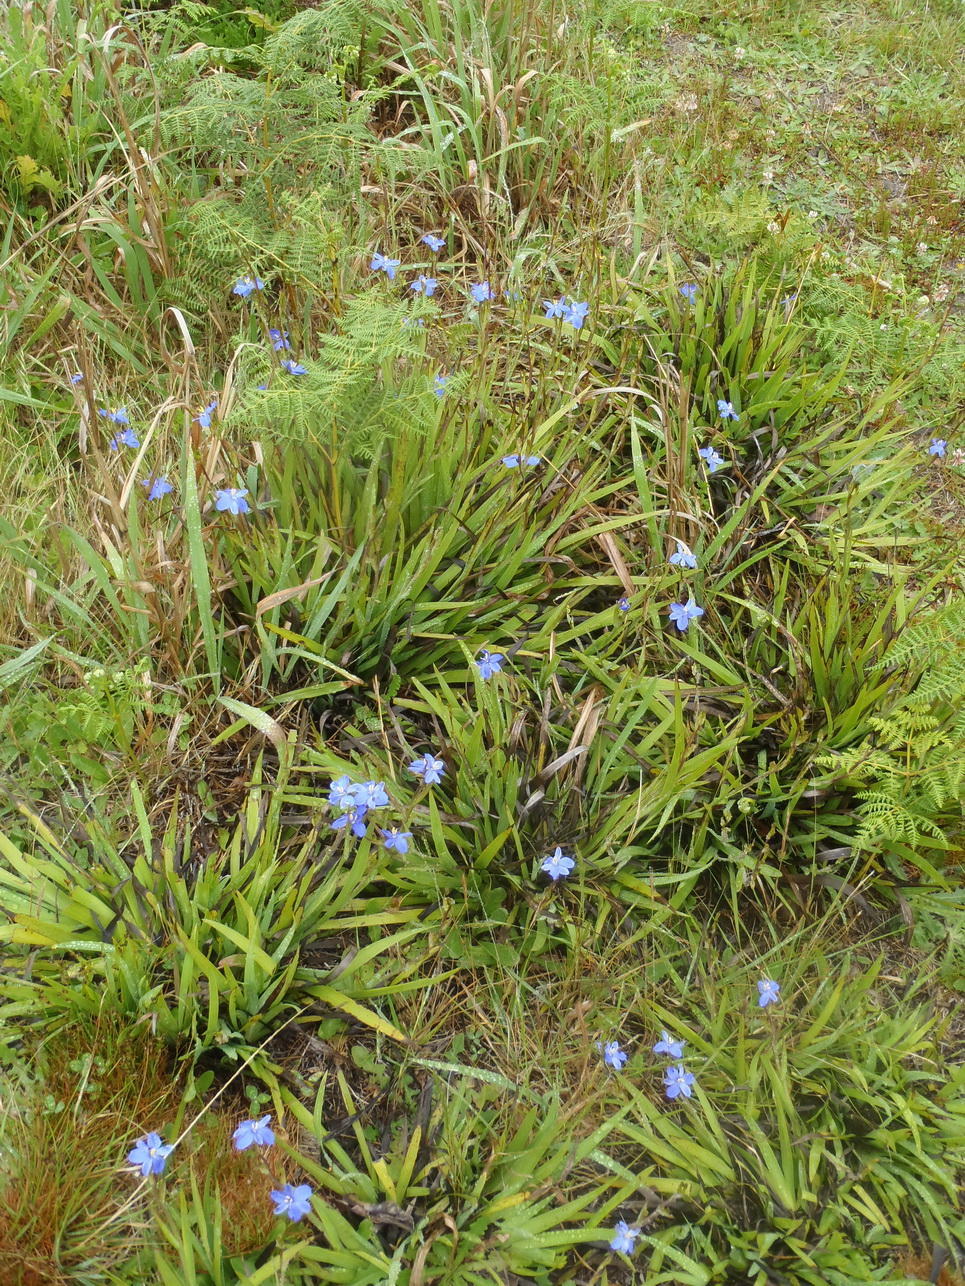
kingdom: Plantae
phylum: Tracheophyta
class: Liliopsida
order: Asparagales
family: Iridaceae
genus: Aristea
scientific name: Aristea ensifolia
